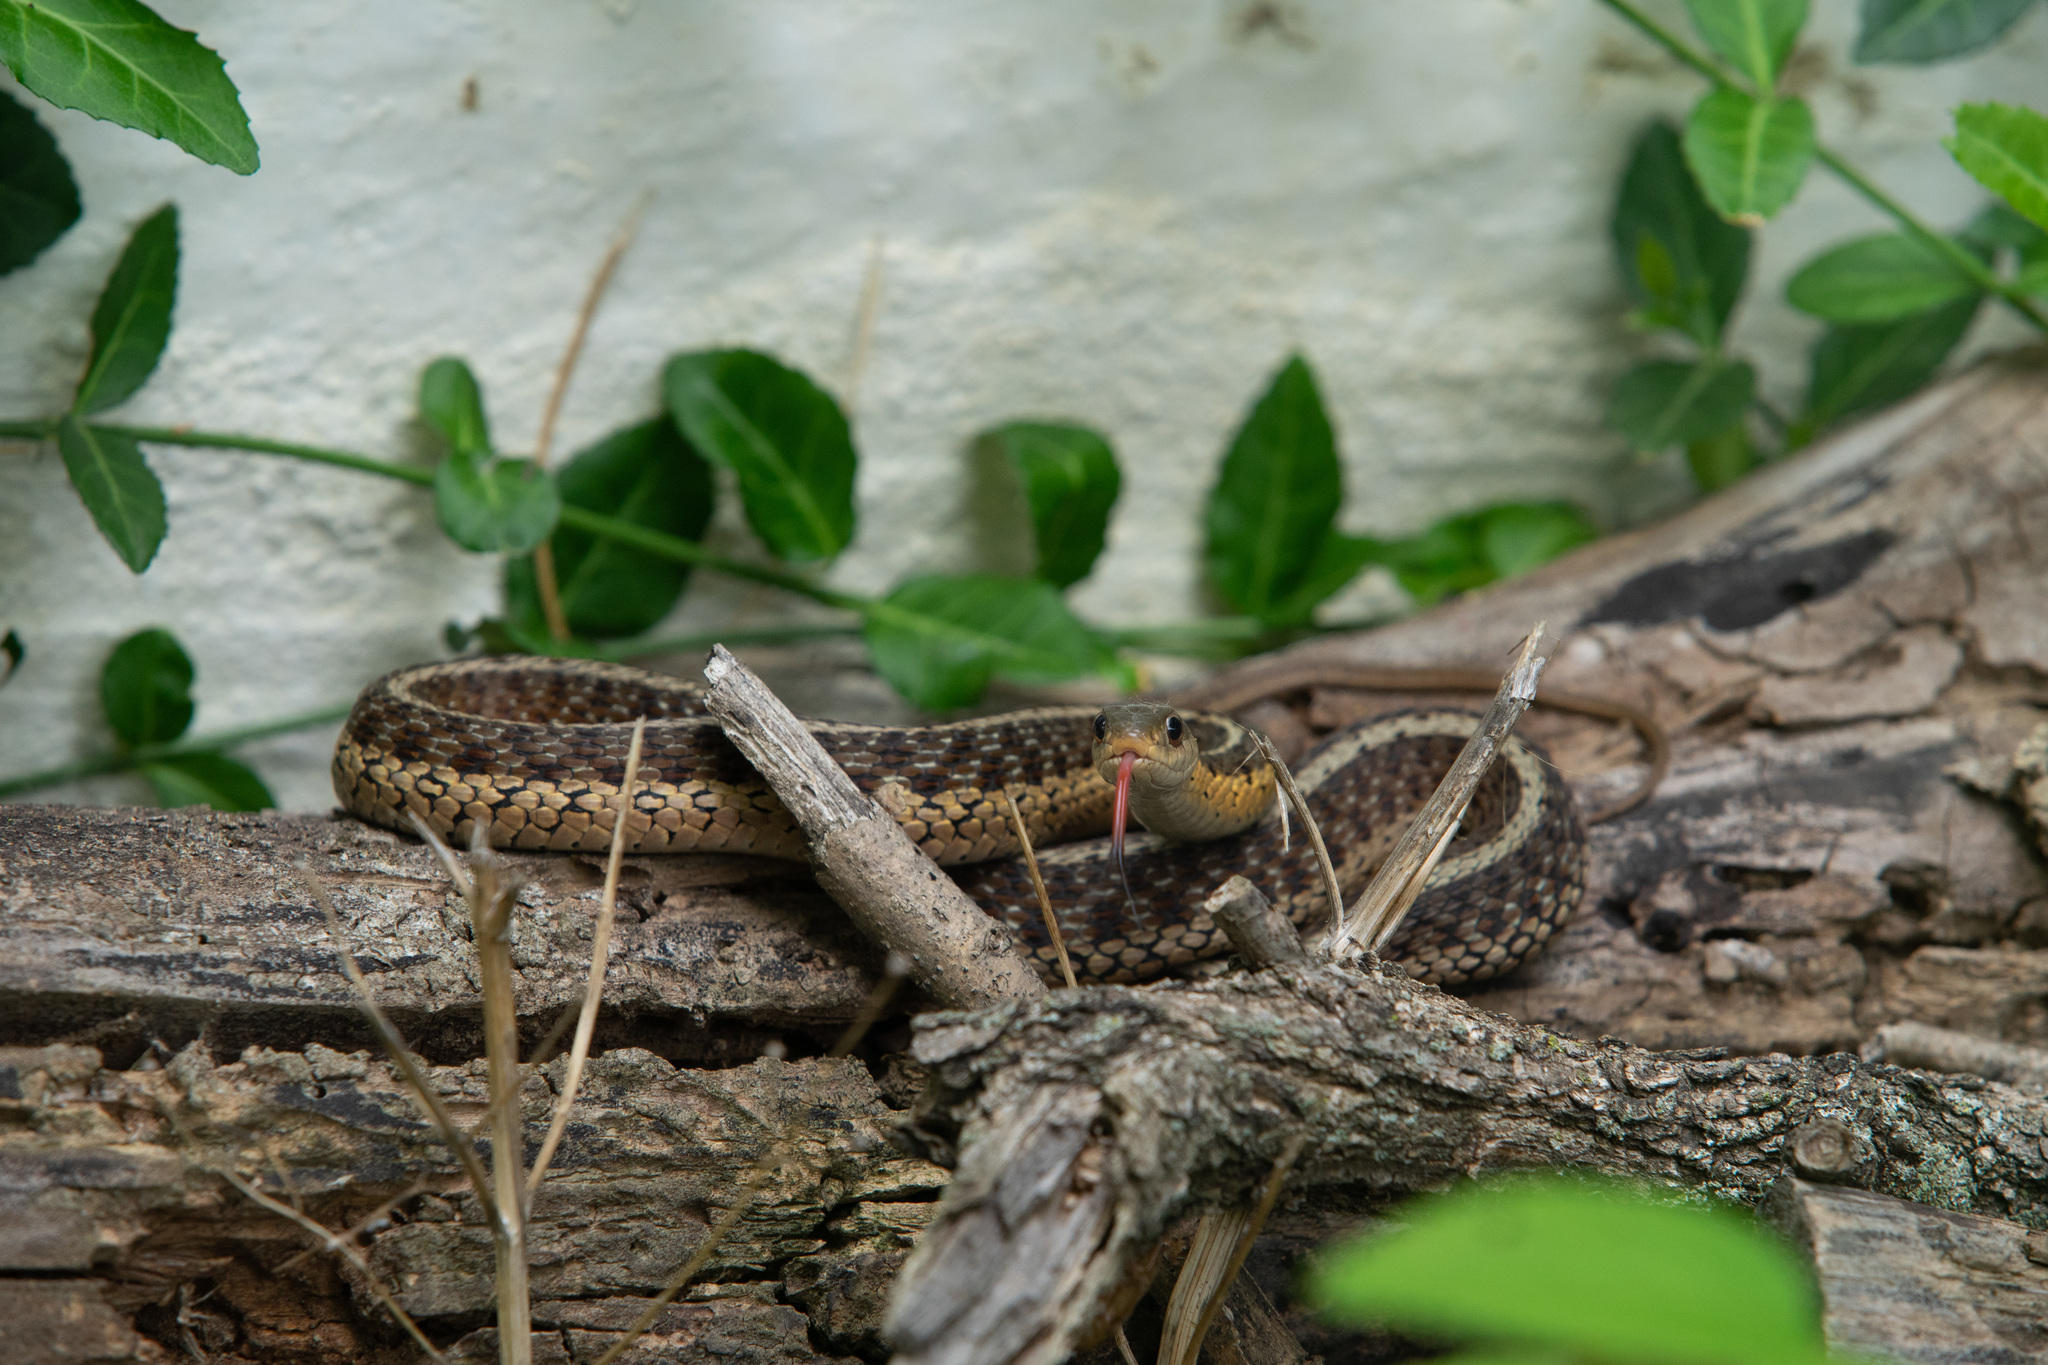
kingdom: Animalia
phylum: Chordata
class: Squamata
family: Colubridae
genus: Thamnophis
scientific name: Thamnophis sirtalis
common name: Common garter snake
